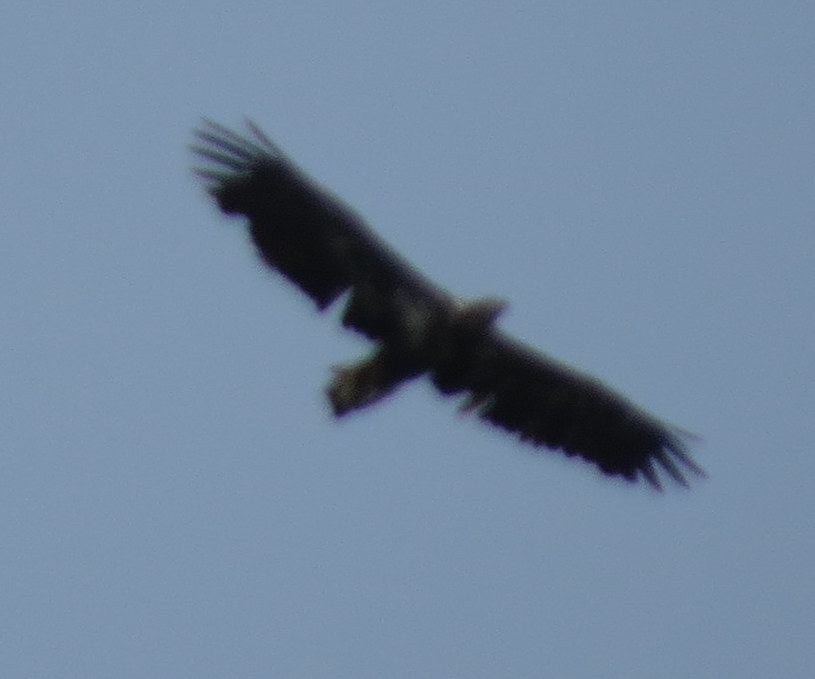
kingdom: Animalia
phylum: Chordata
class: Aves
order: Accipitriformes
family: Accipitridae
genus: Haliaeetus
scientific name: Haliaeetus leucocephalus
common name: Bald eagle
